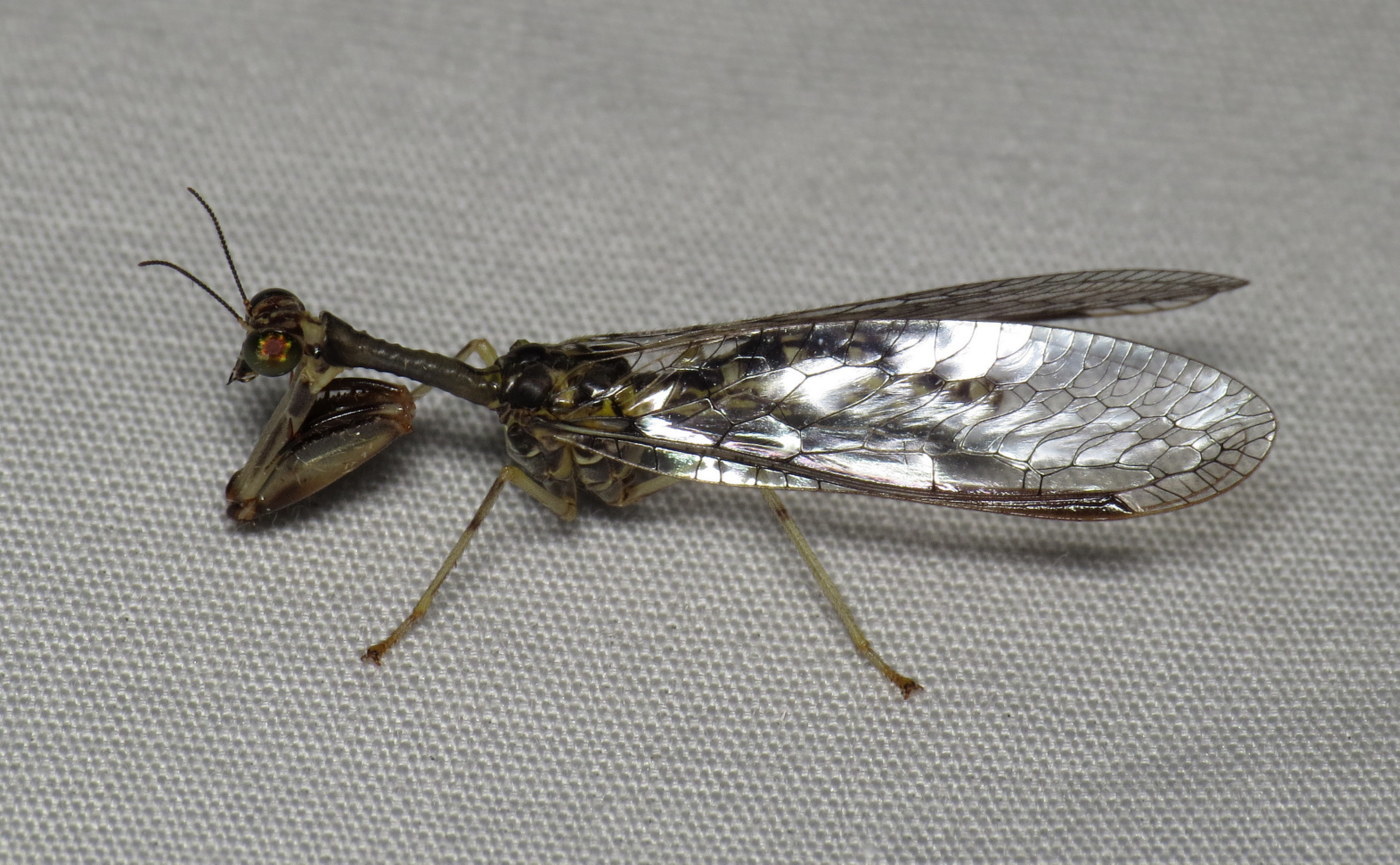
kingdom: Animalia
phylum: Arthropoda
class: Insecta
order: Neuroptera
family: Mantispidae
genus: Dicromantispa
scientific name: Dicromantispa sayi
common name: Say's mantidfly
